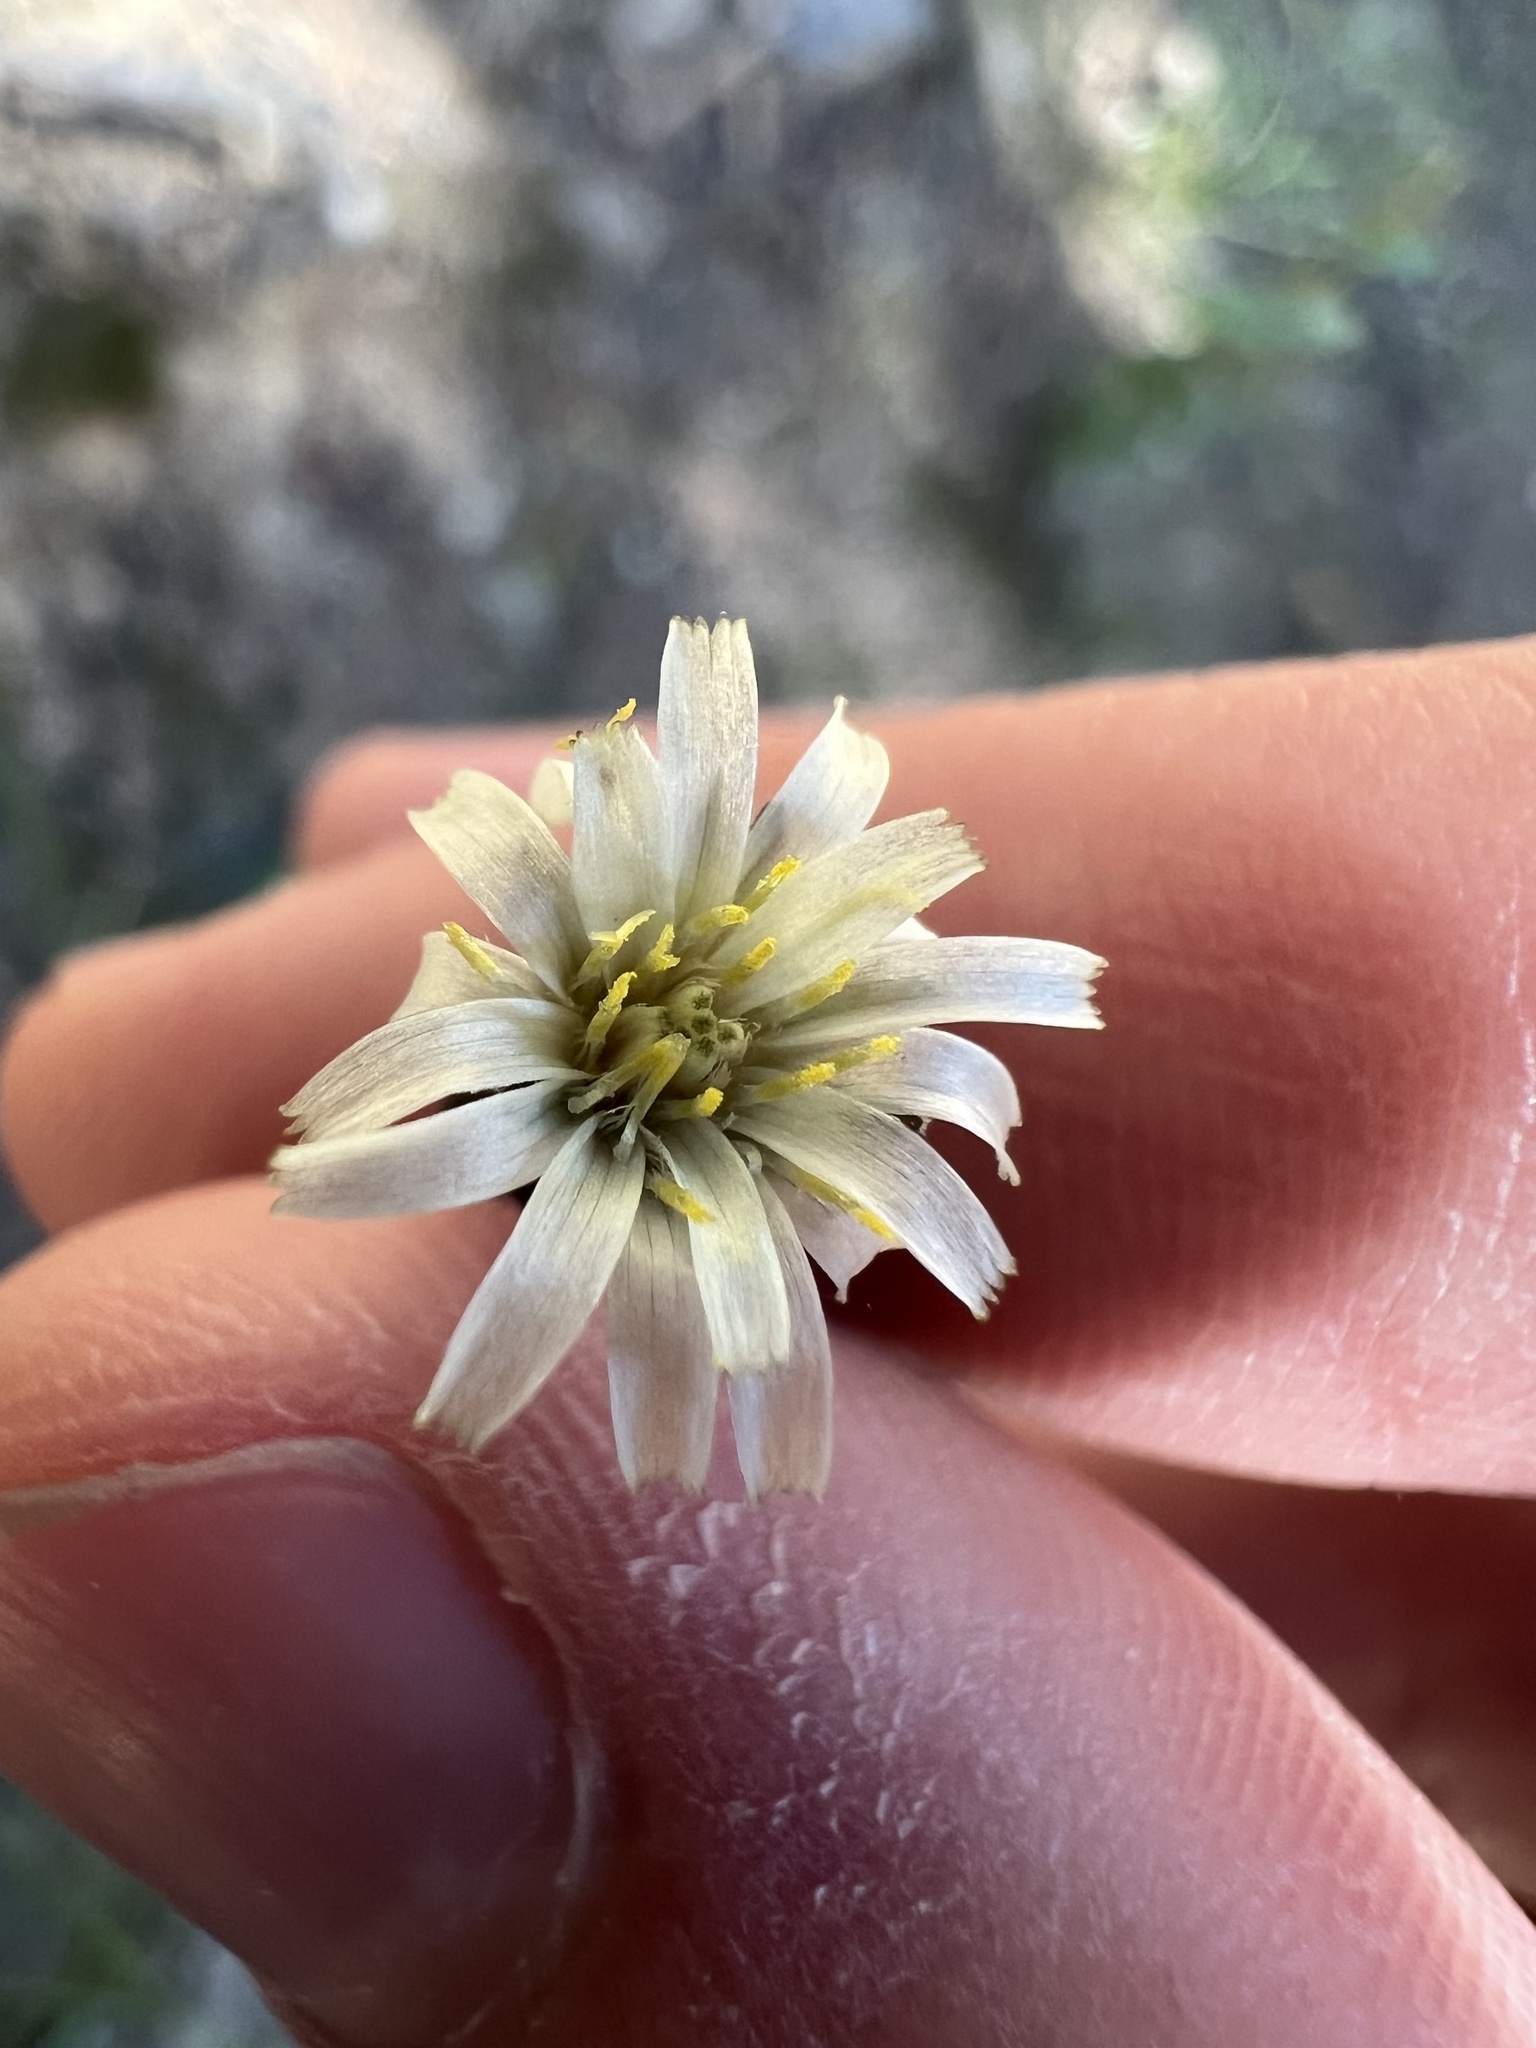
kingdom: Plantae
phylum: Tracheophyta
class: Magnoliopsida
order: Asterales
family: Asteraceae
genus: Hieracium
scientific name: Hieracium albiflorum
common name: White hawkweed
